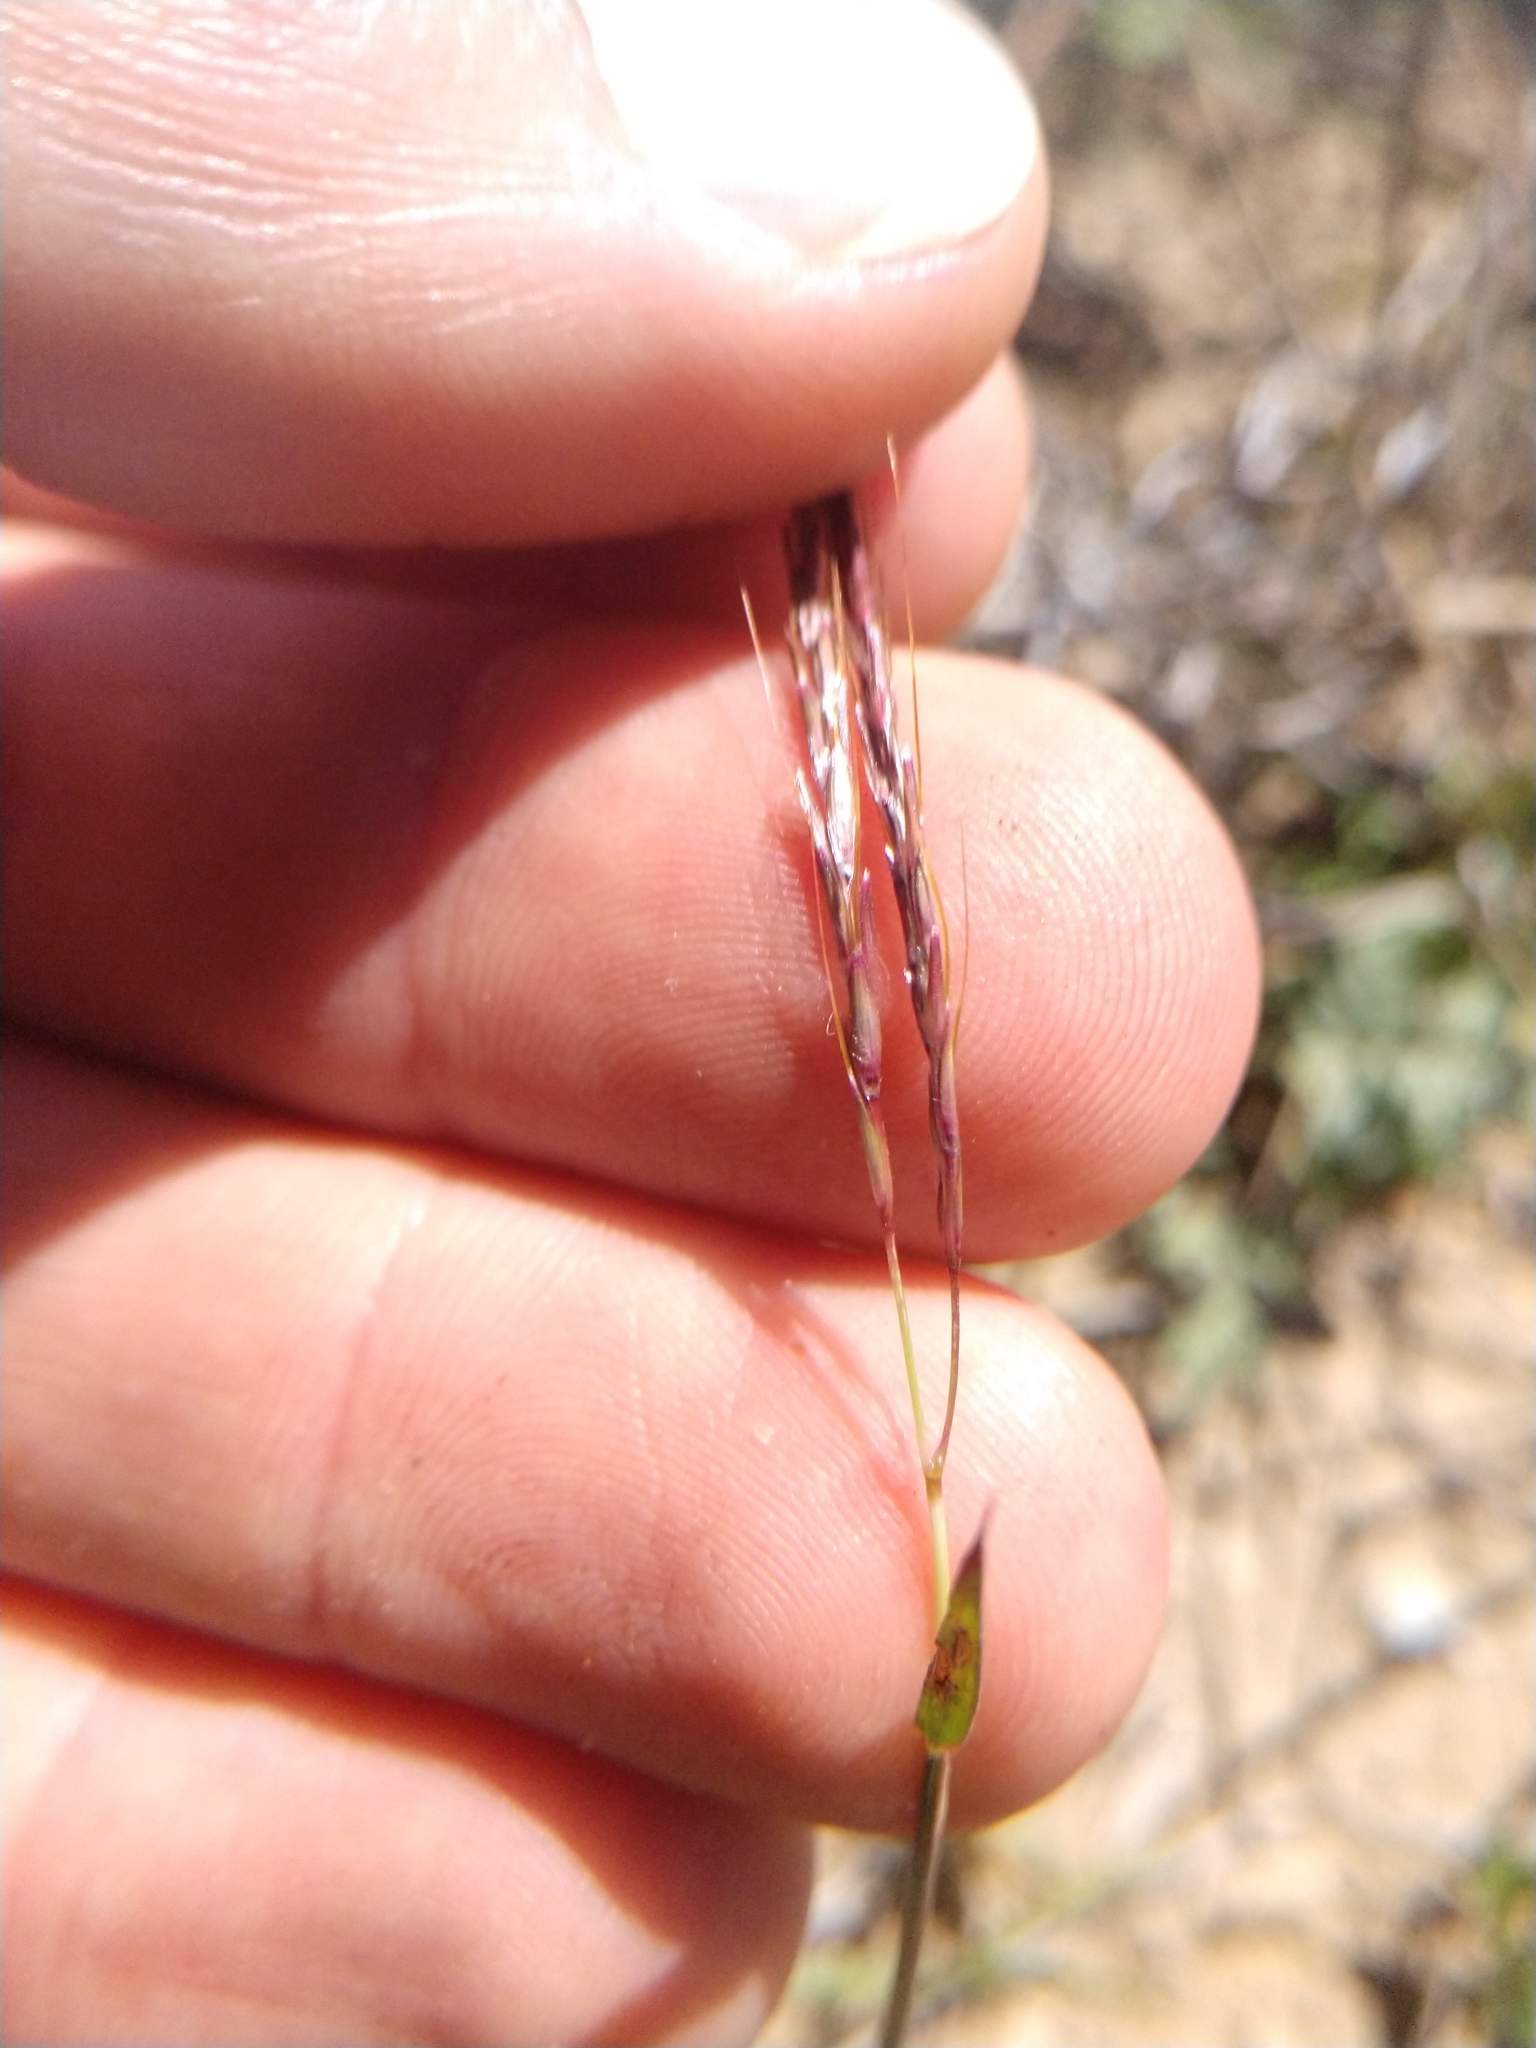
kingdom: Plantae
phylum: Tracheophyta
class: Liliopsida
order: Poales
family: Poaceae
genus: Bothriochloa
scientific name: Bothriochloa ischaemum
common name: Yellow bluestem
